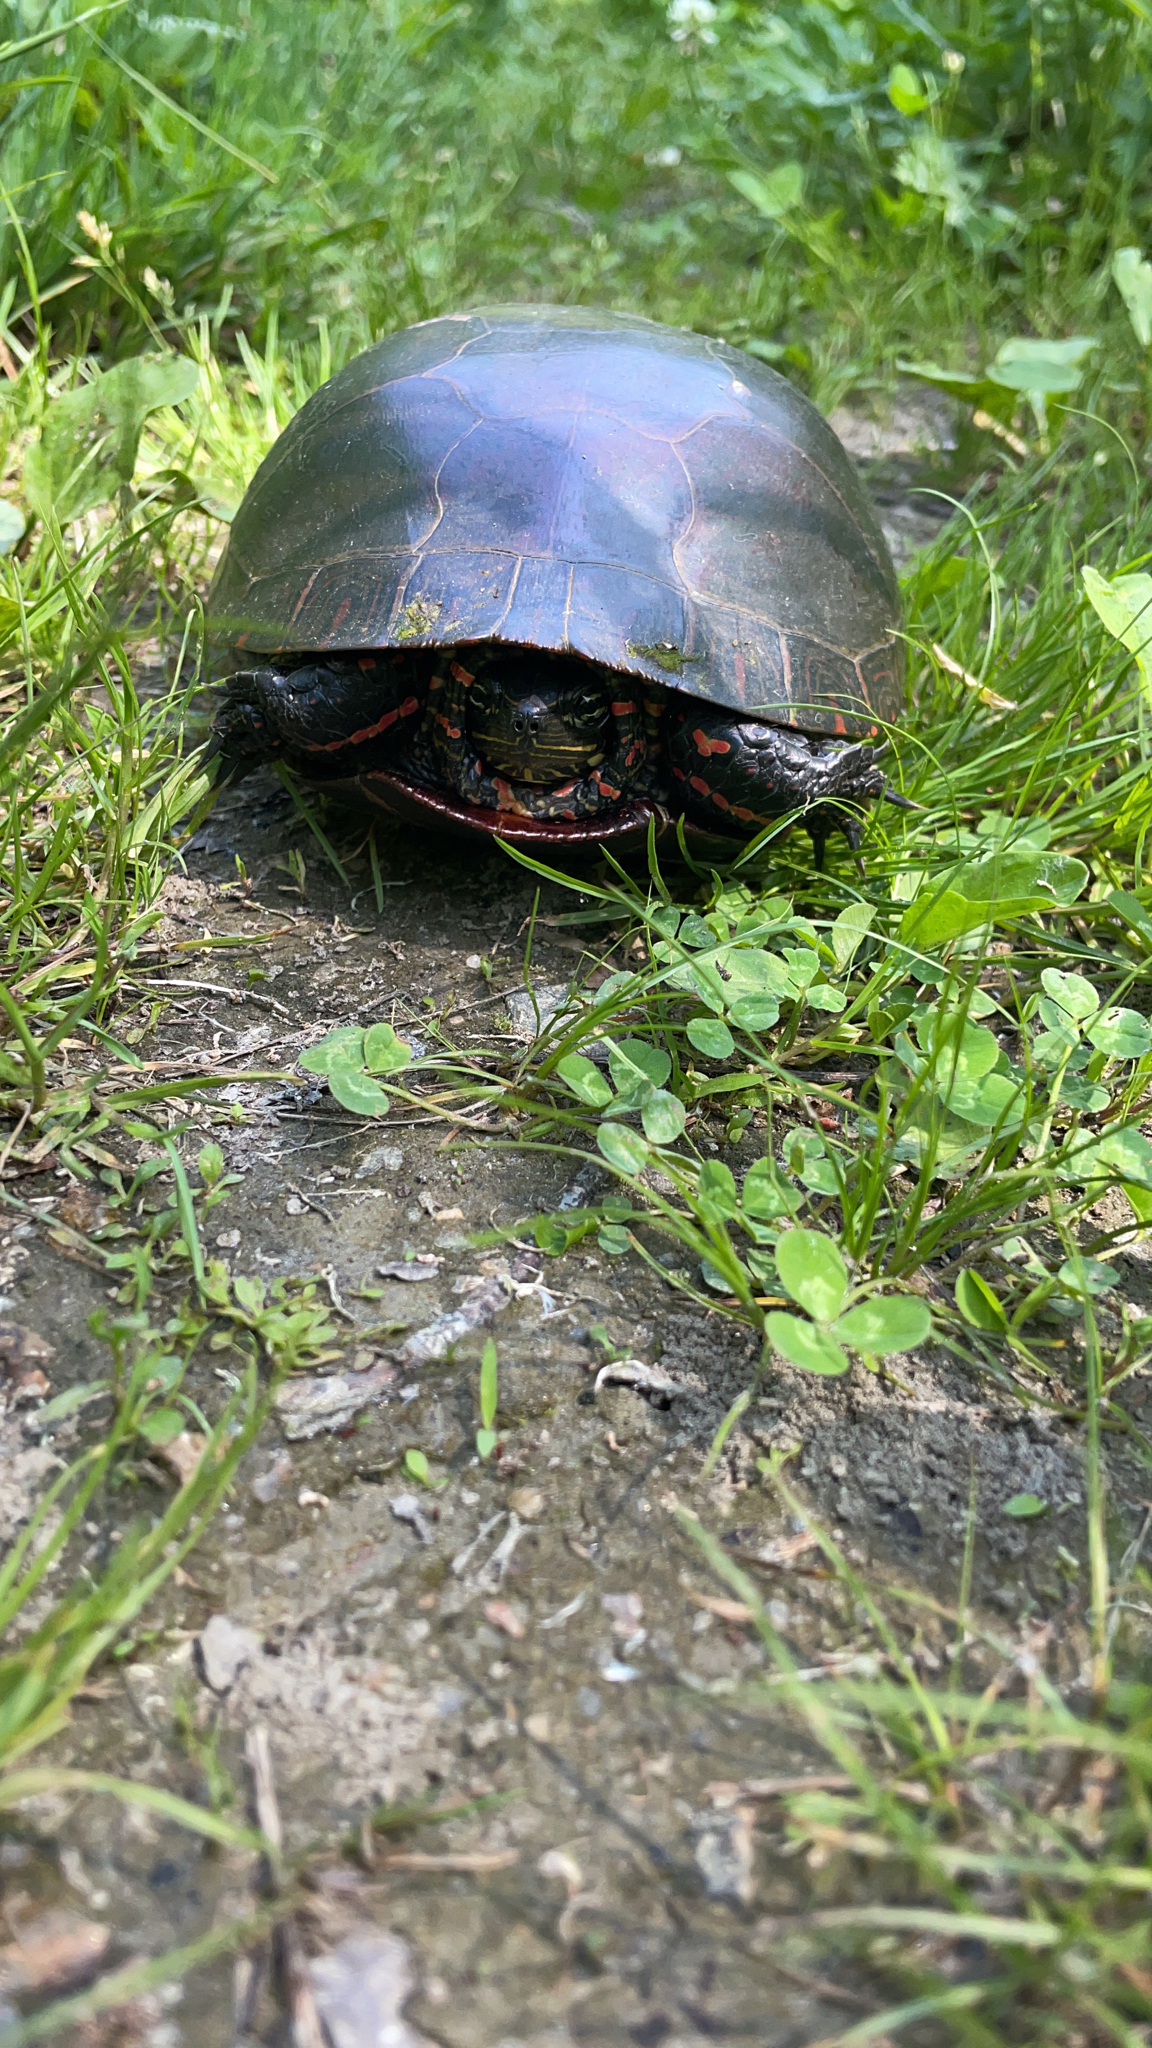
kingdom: Animalia
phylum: Chordata
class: Testudines
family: Emydidae
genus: Chrysemys
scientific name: Chrysemys picta
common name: Painted turtle
